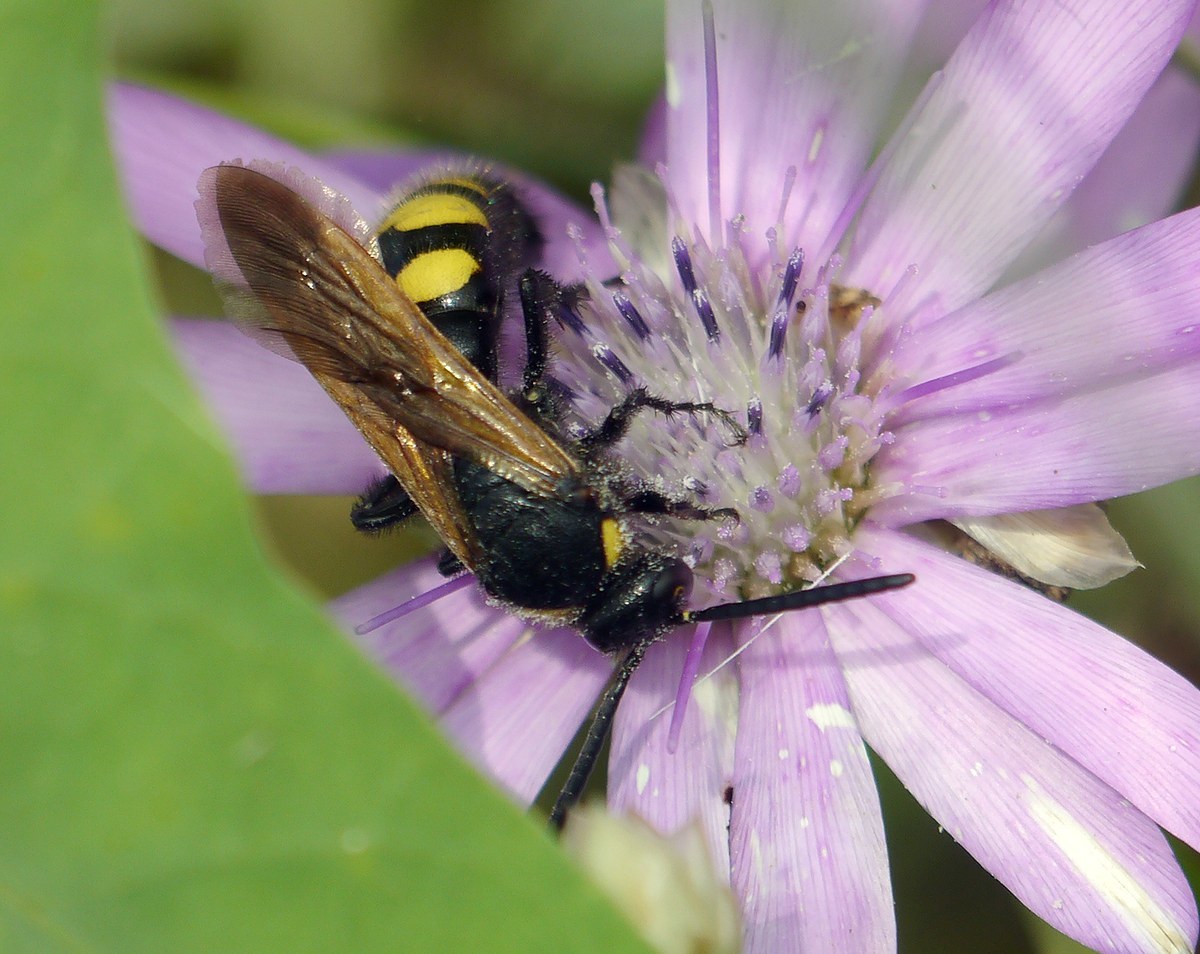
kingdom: Animalia
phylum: Arthropoda
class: Insecta
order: Hymenoptera
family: Scoliidae
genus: Scolia
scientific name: Scolia fuciformis
